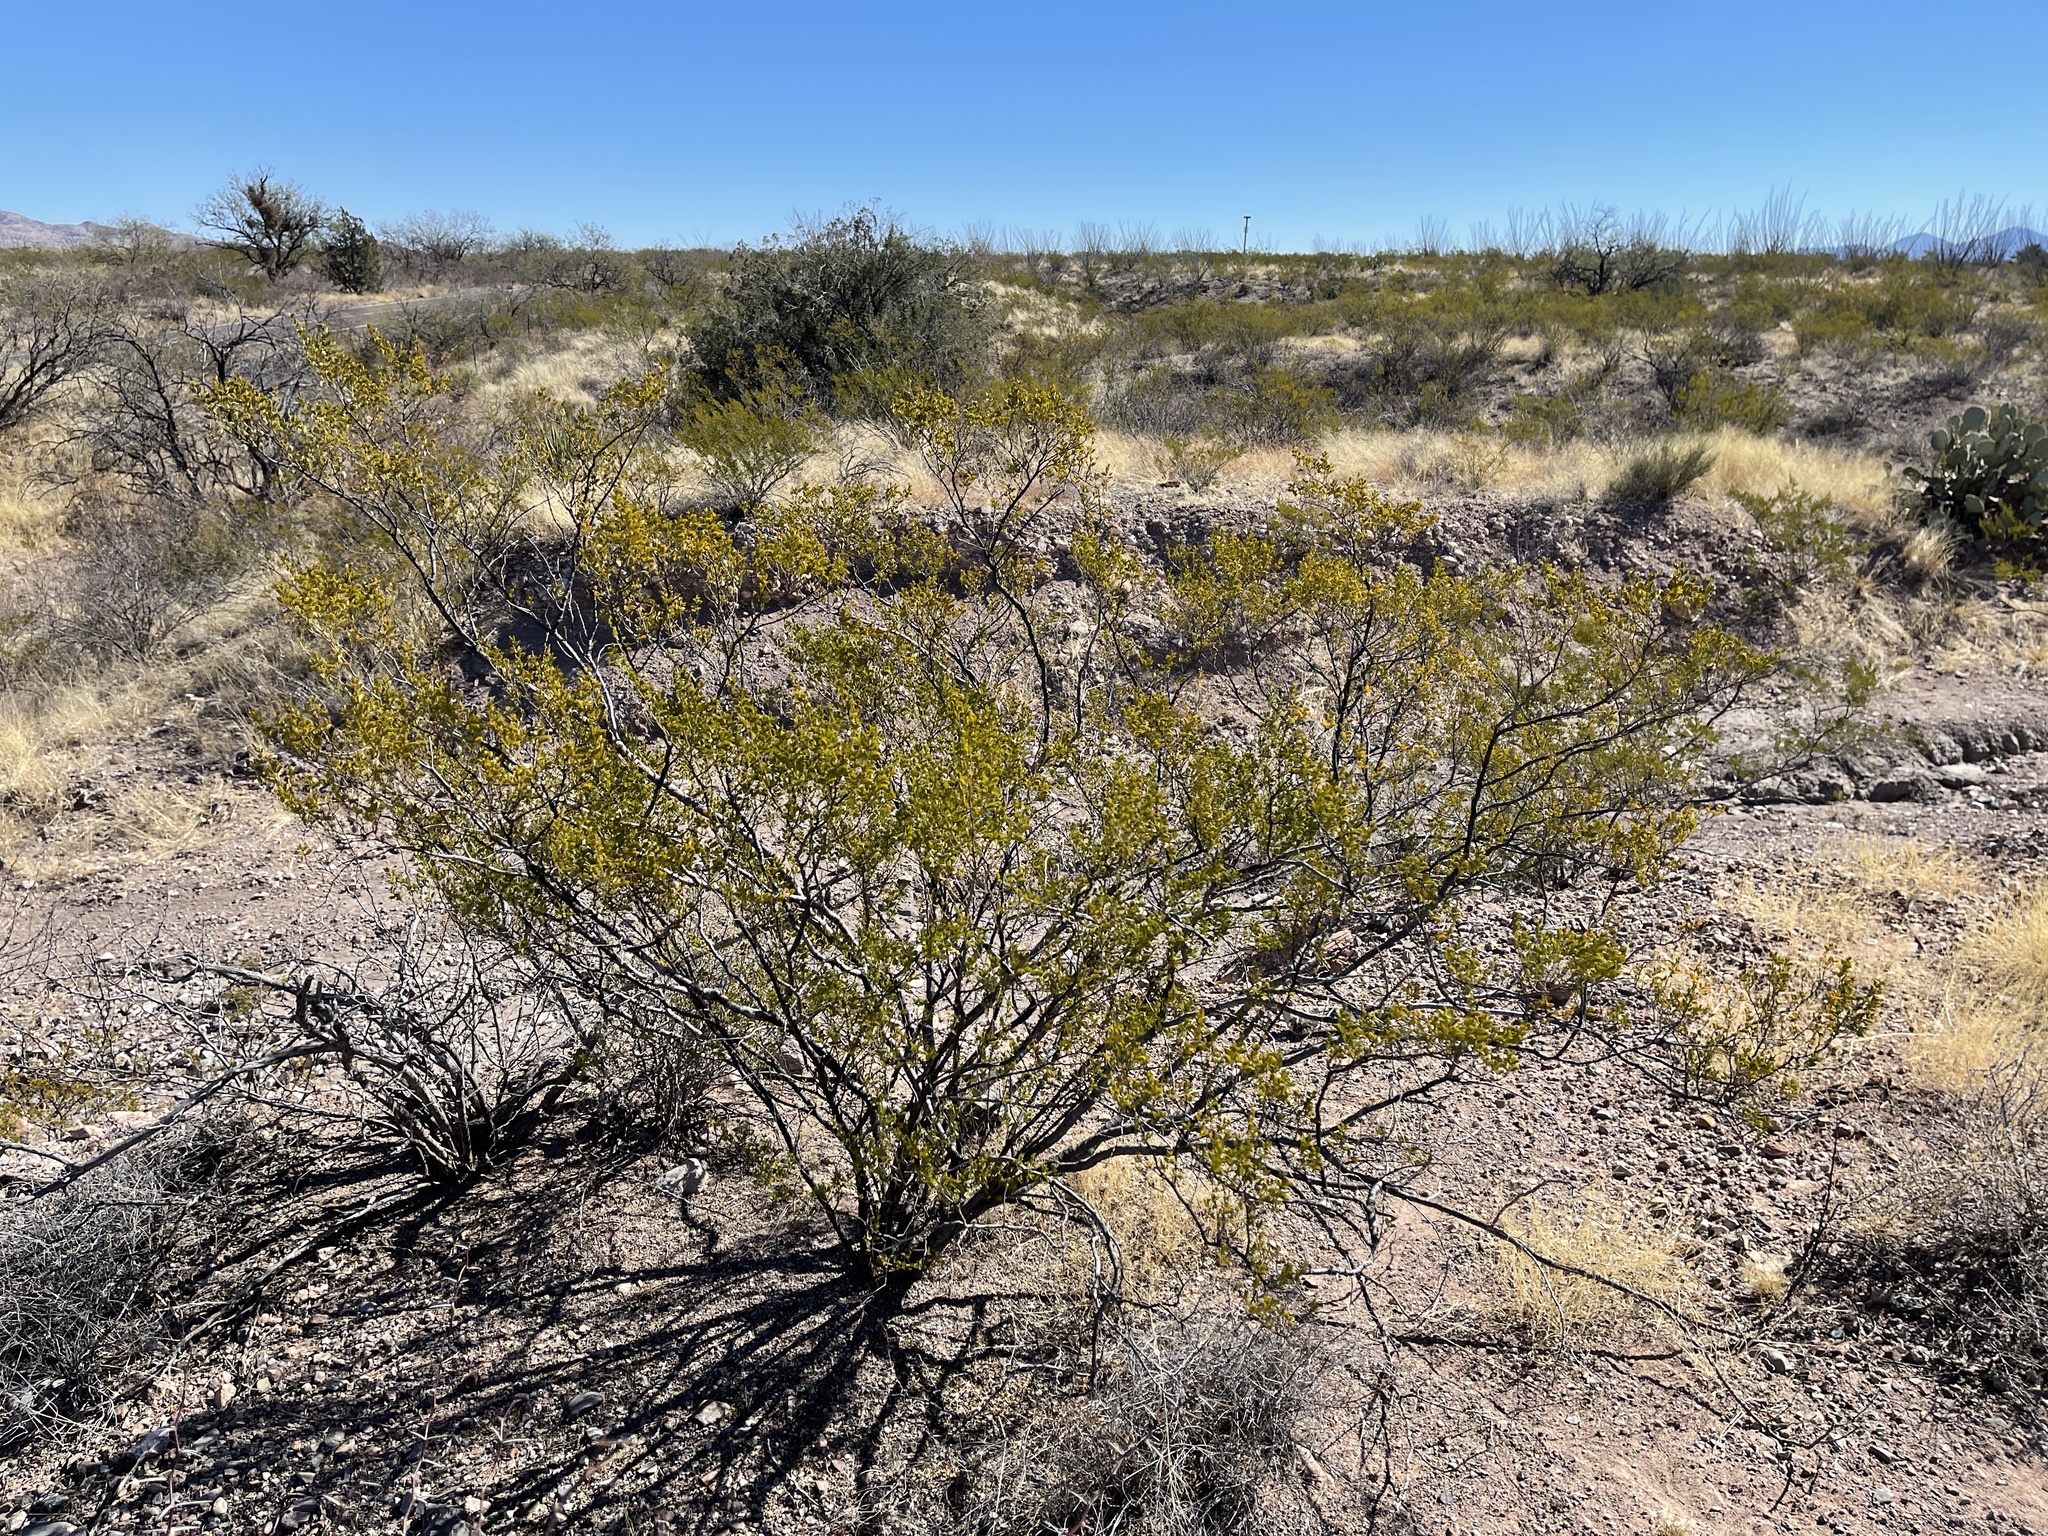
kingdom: Plantae
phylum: Tracheophyta
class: Magnoliopsida
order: Zygophyllales
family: Zygophyllaceae
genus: Larrea
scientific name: Larrea tridentata
